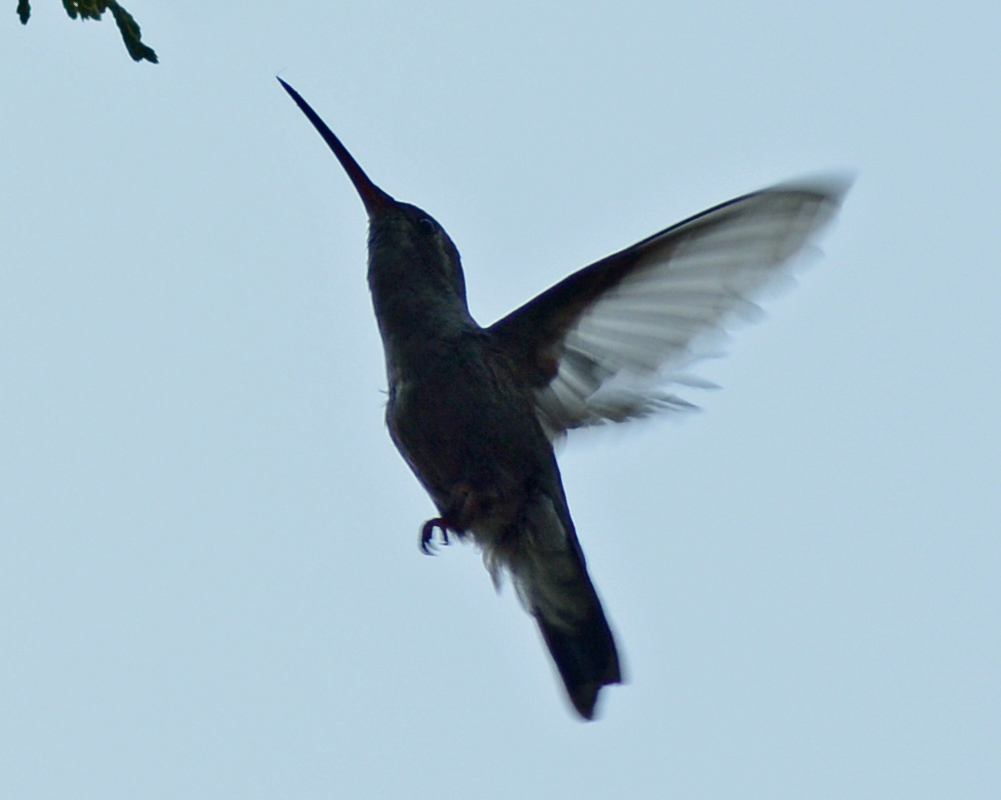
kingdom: Animalia
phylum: Chordata
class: Aves
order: Apodiformes
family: Trochilidae
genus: Cynanthus
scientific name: Cynanthus latirostris
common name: Broad-billed hummingbird
